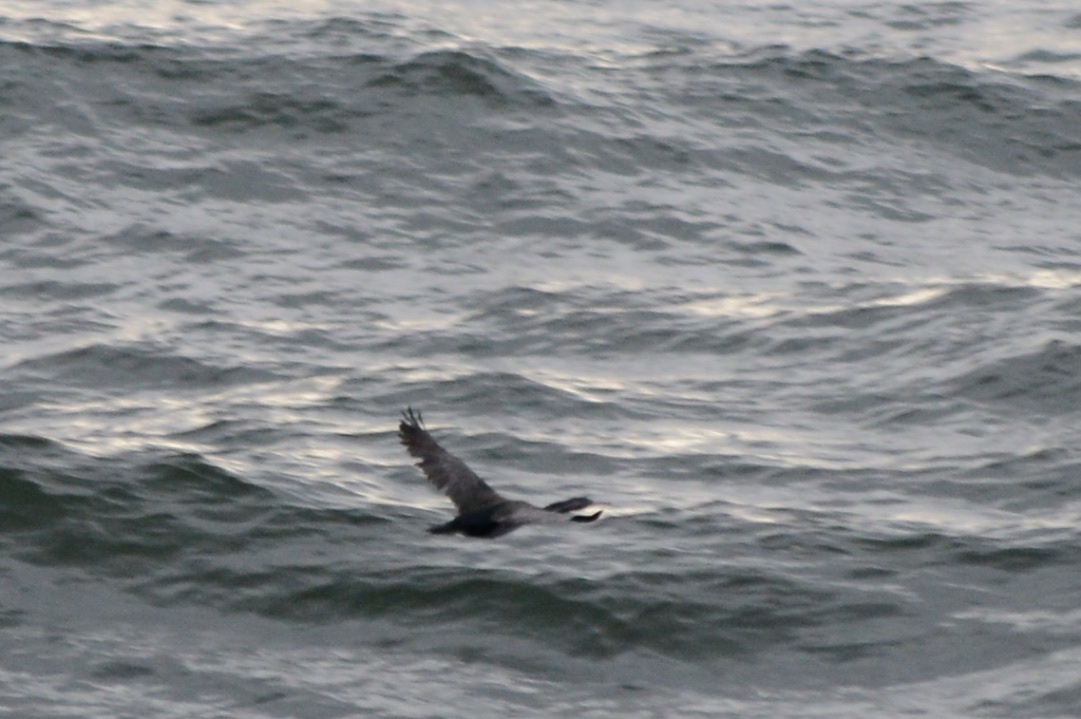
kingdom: Animalia
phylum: Chordata
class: Aves
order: Suliformes
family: Phalacrocoracidae
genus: Phalacrocorax
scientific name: Phalacrocorax punctatus
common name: Spotted shag
